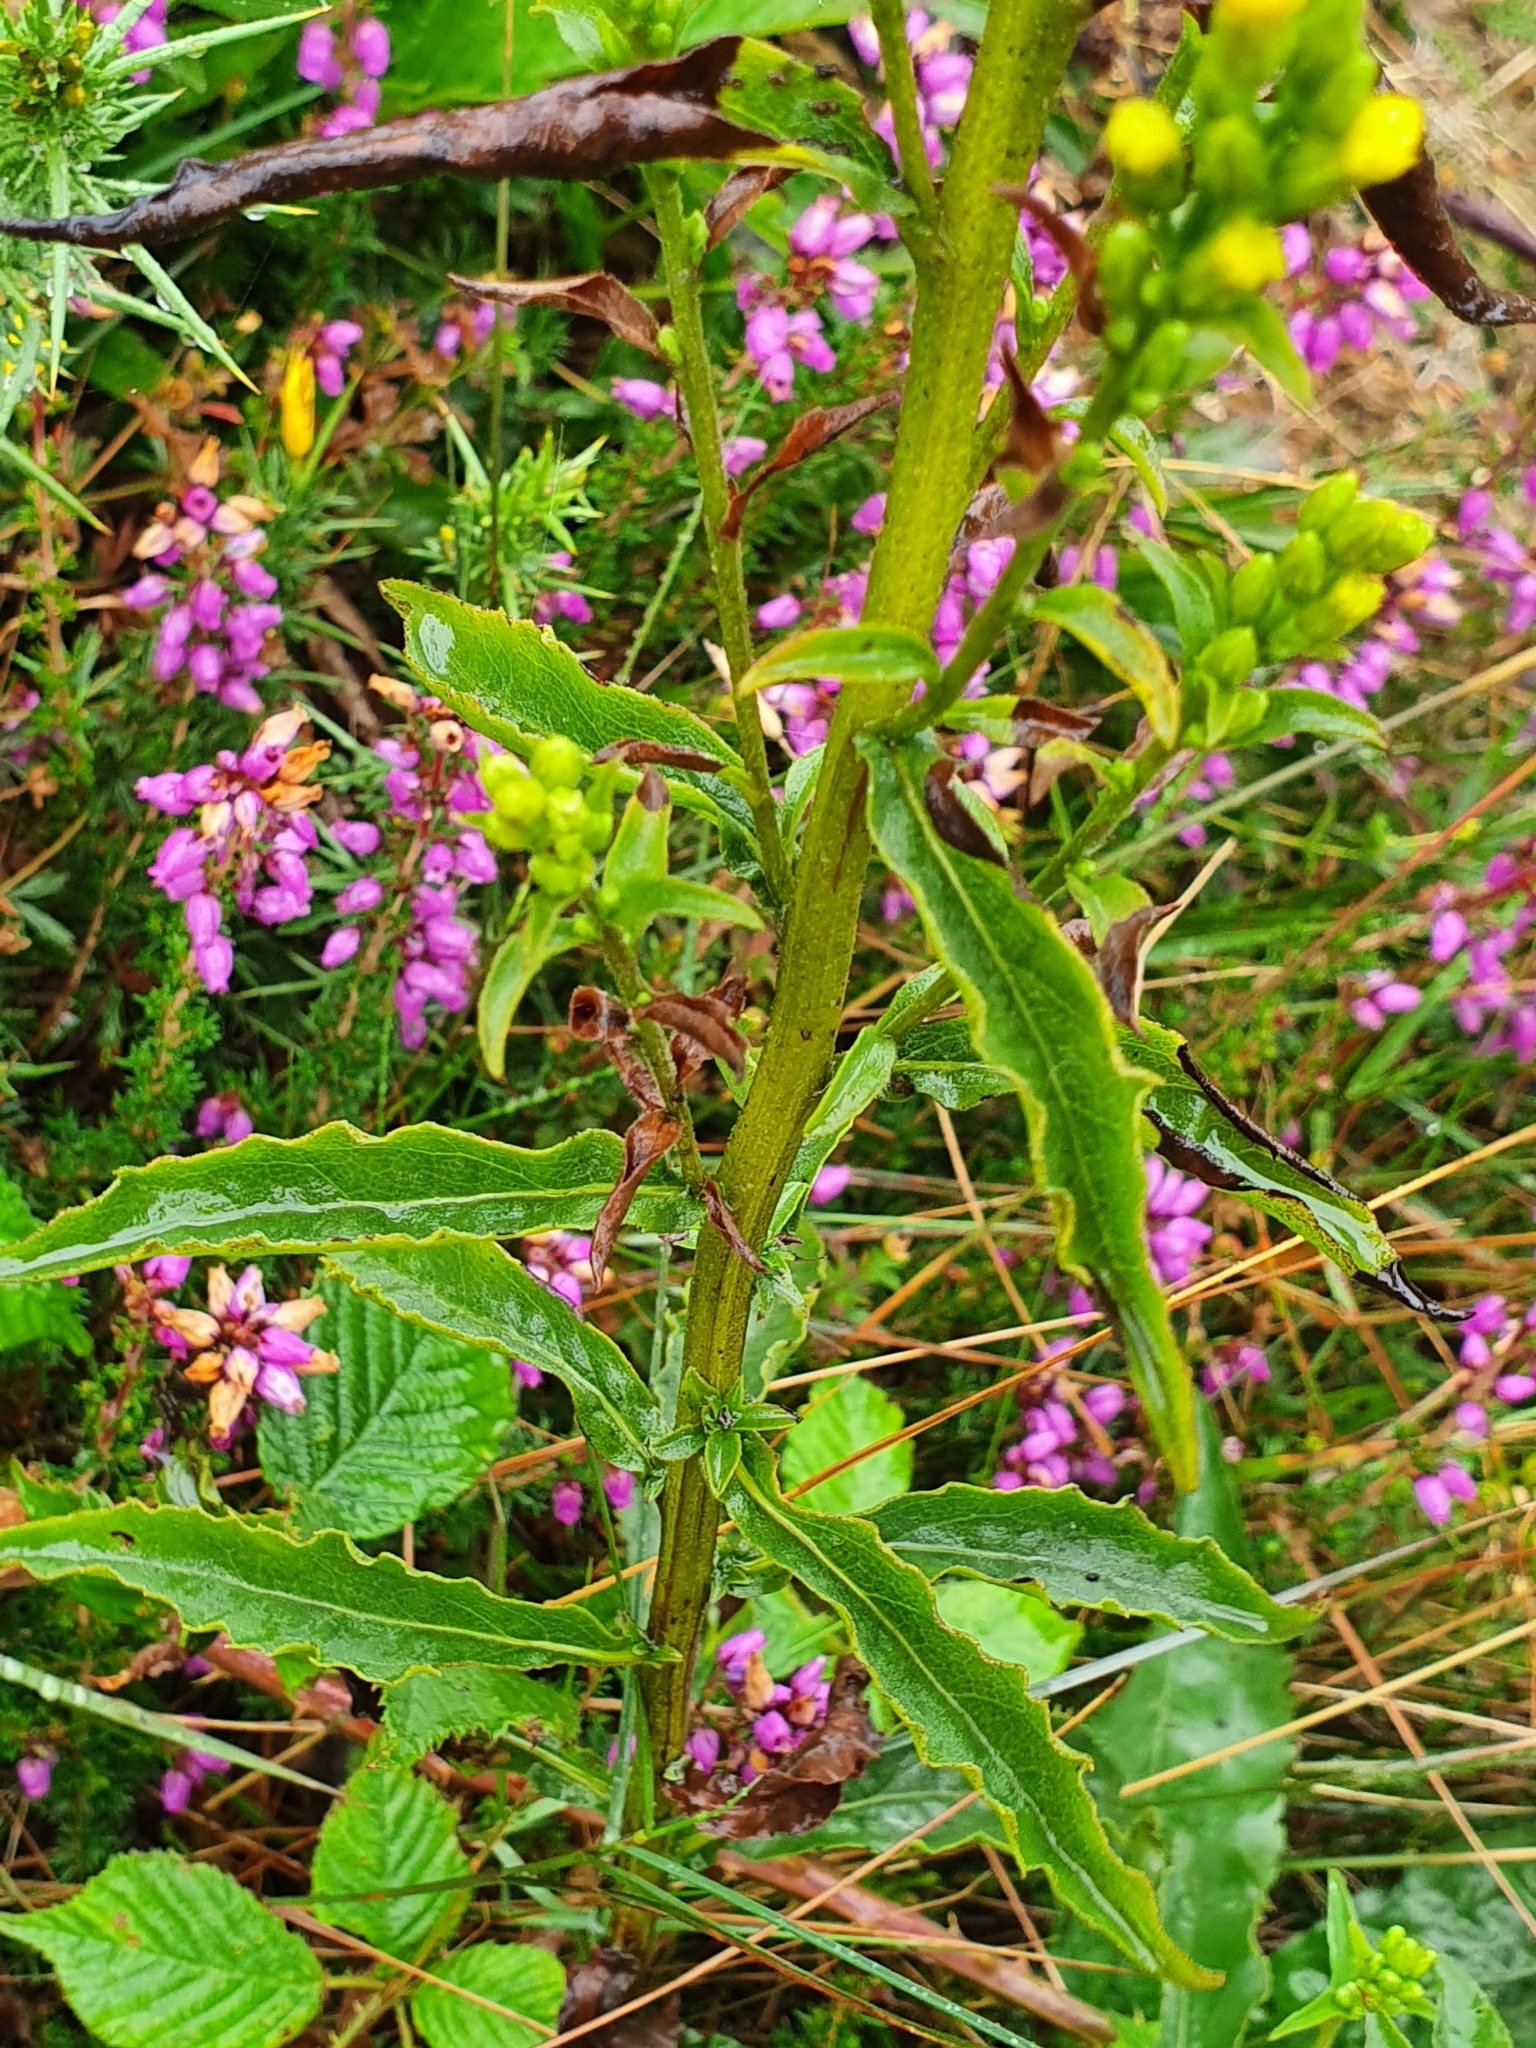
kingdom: Plantae
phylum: Tracheophyta
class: Magnoliopsida
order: Asterales
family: Asteraceae
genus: Solidago
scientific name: Solidago virgaurea
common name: Goldenrod
